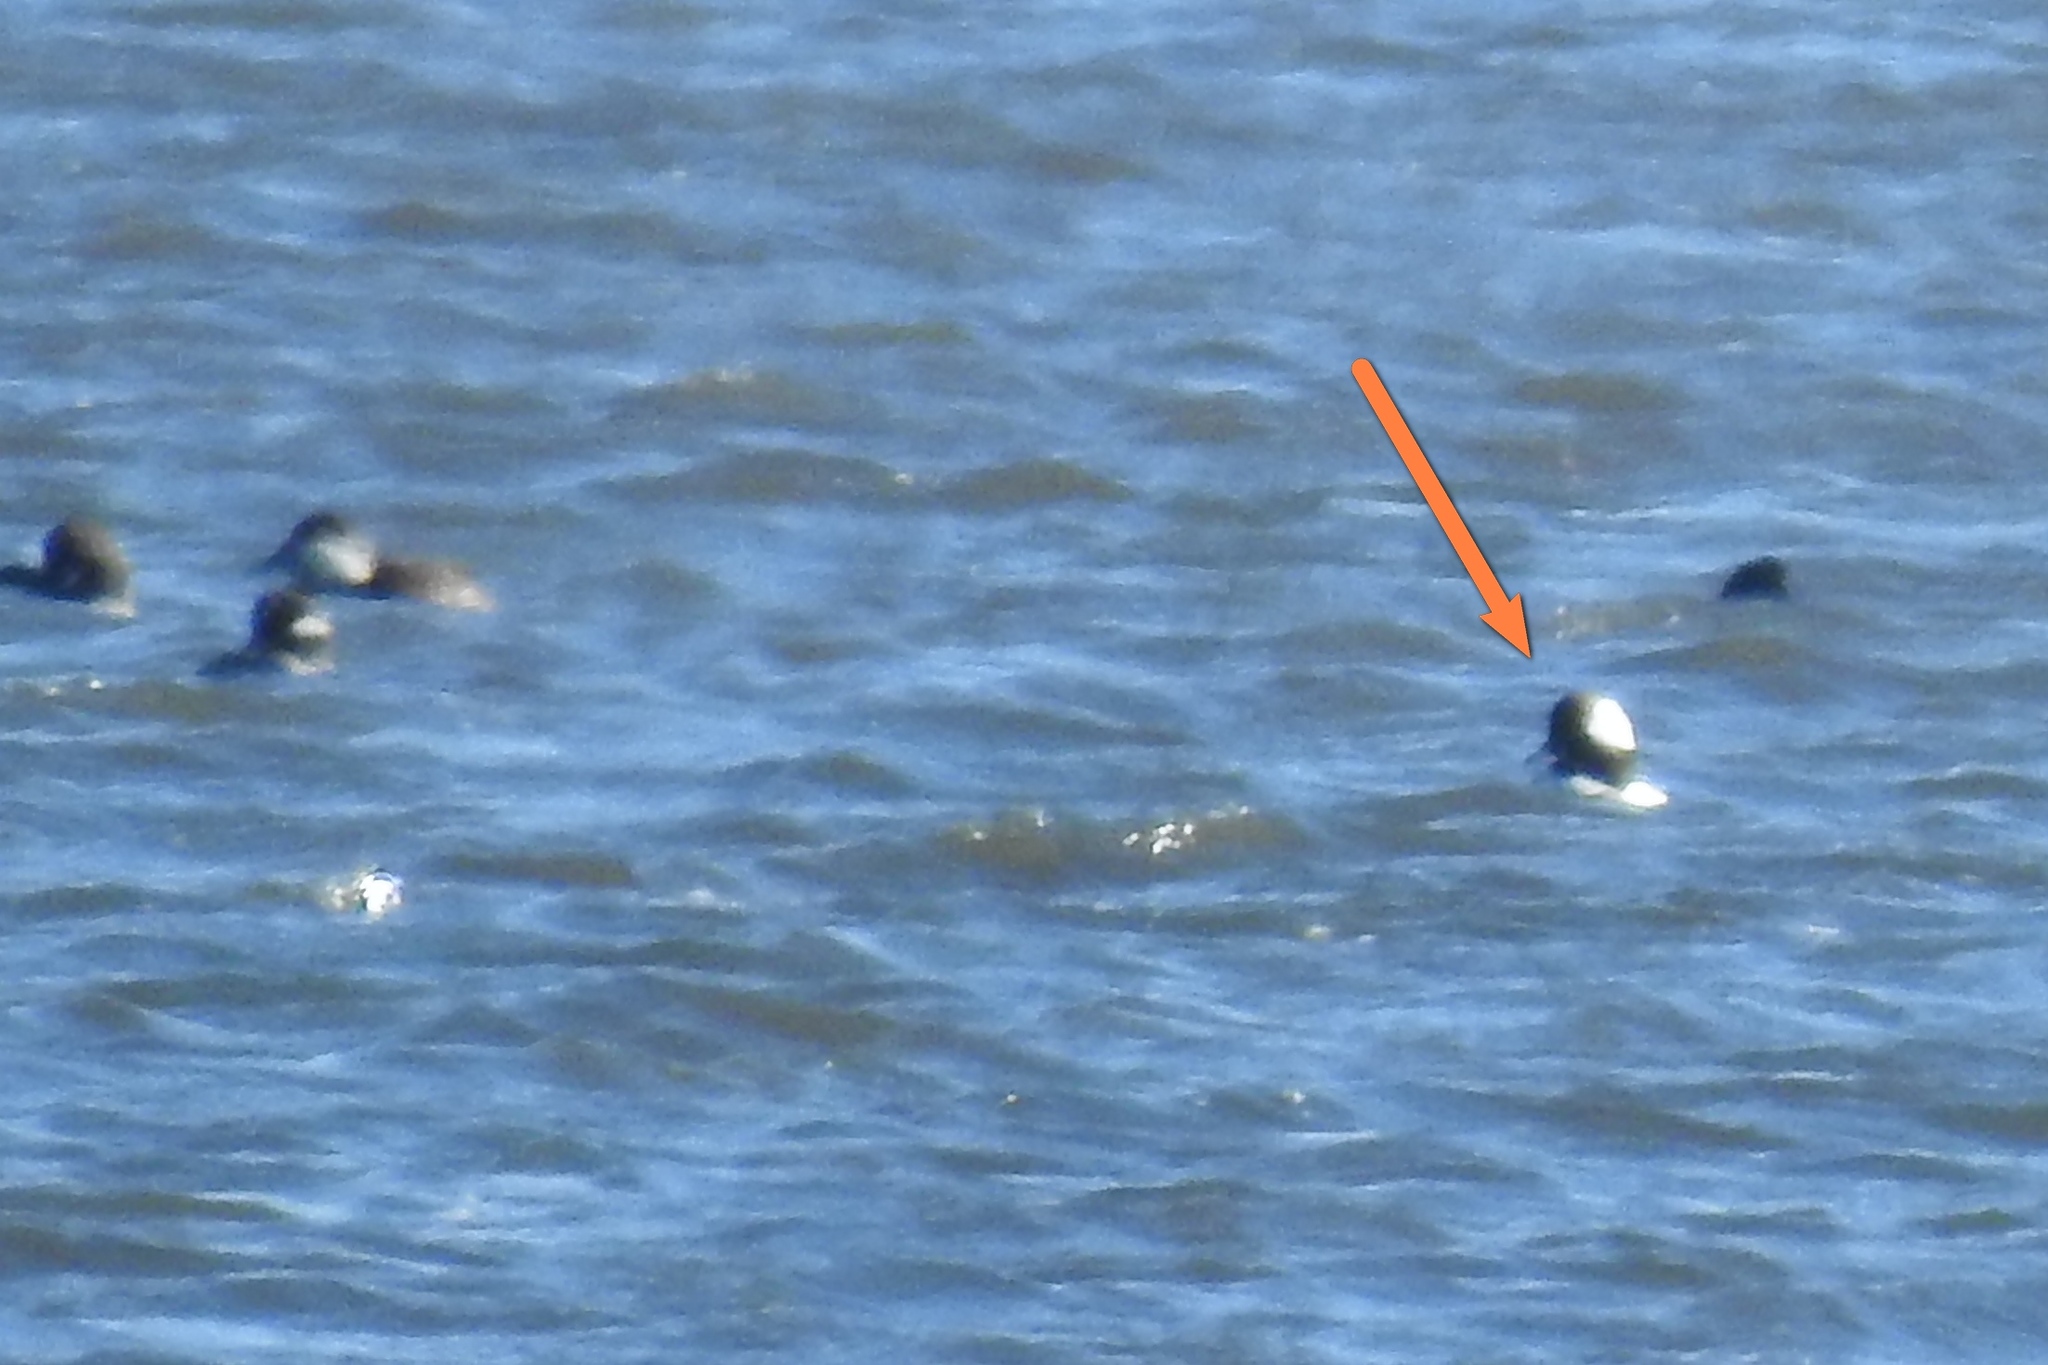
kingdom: Animalia
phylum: Chordata
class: Aves
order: Anseriformes
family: Anatidae
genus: Bucephala
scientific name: Bucephala albeola
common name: Bufflehead
